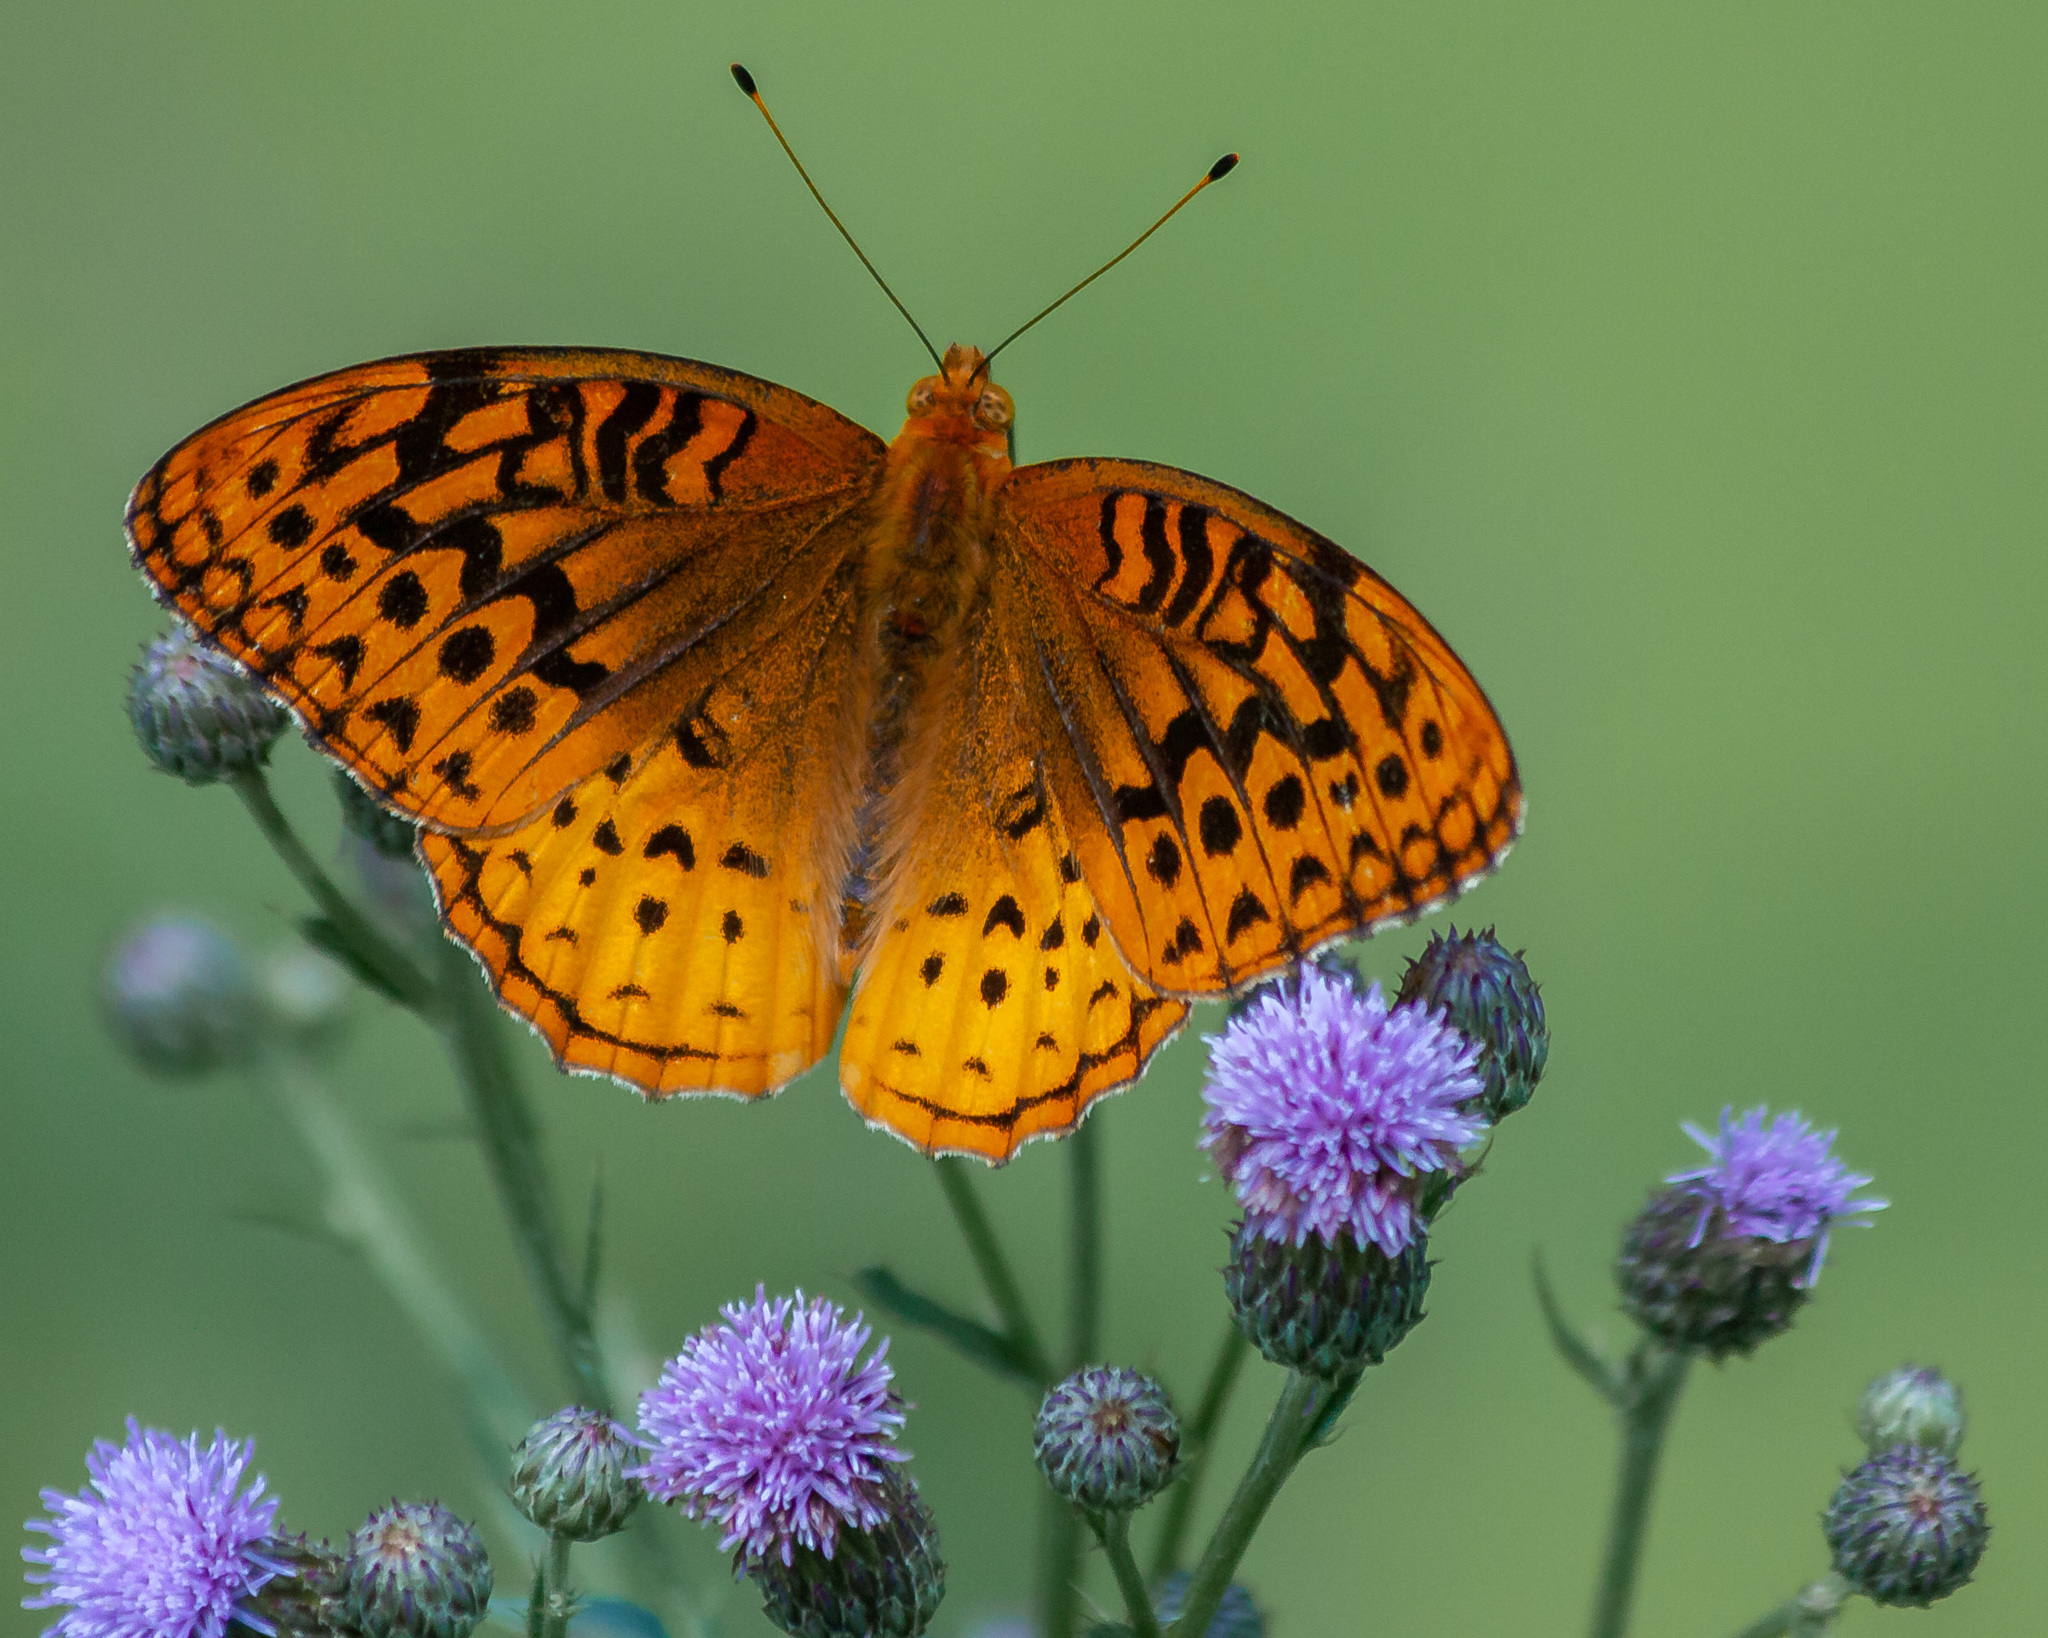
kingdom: Animalia
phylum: Arthropoda
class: Insecta
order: Lepidoptera
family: Nymphalidae
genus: Speyeria
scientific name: Speyeria cybele
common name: Great spangled fritillary
